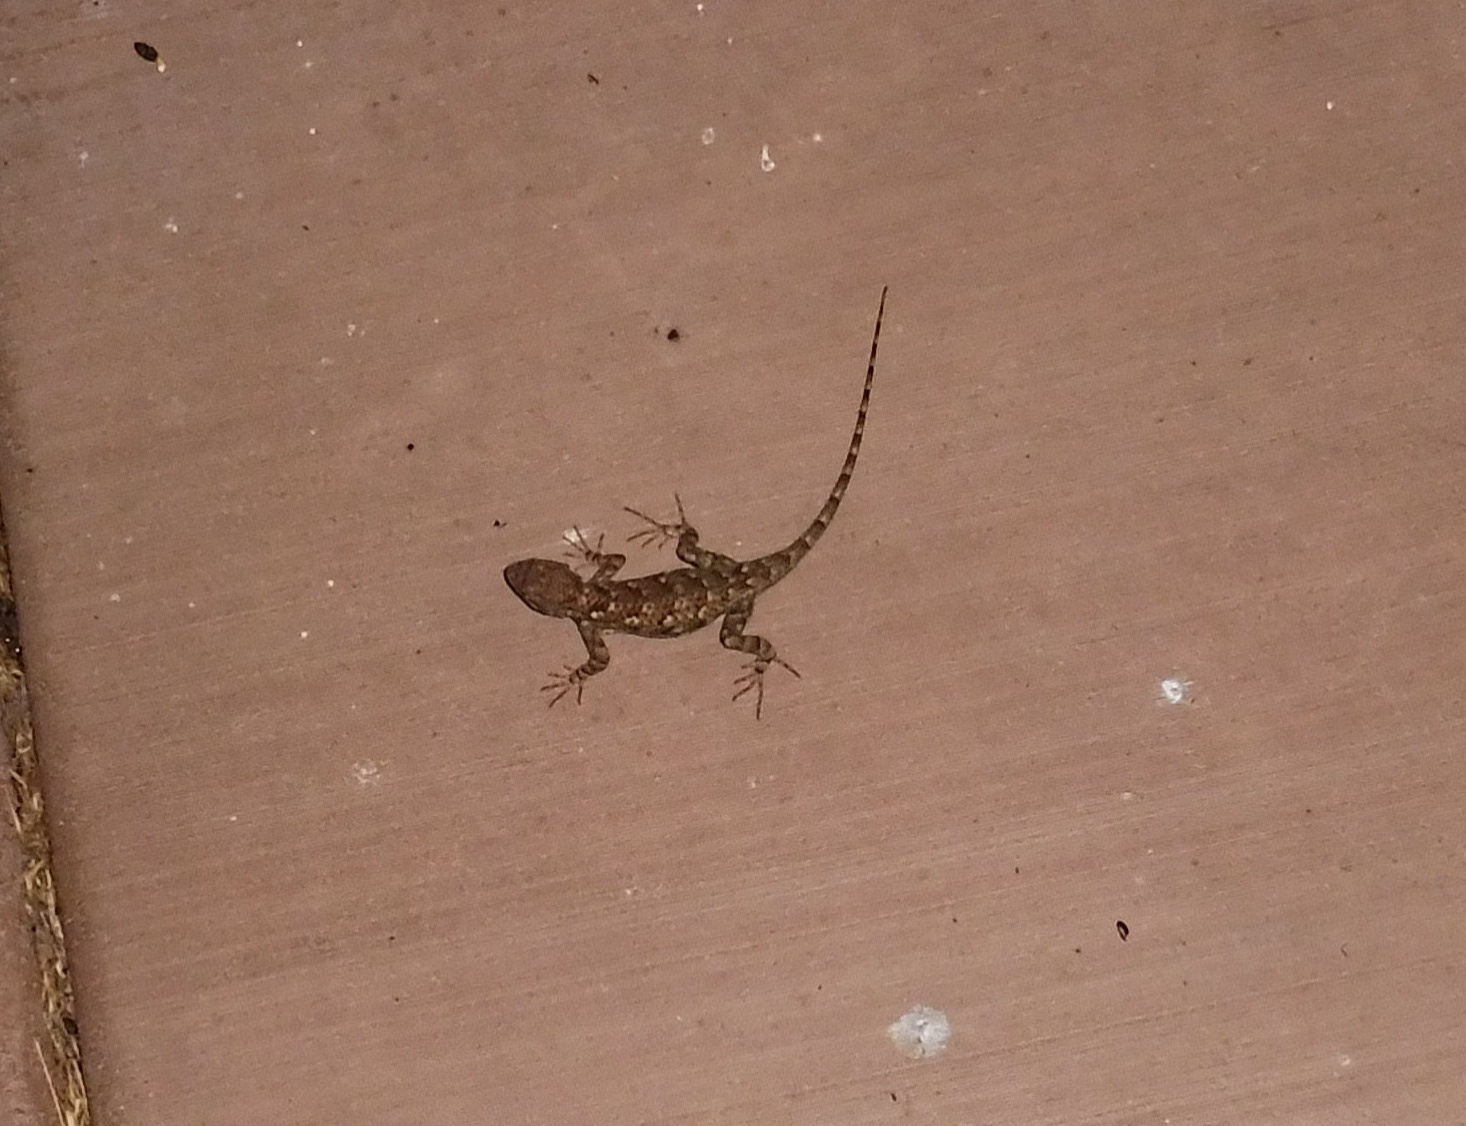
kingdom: Animalia
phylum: Chordata
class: Squamata
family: Phrynosomatidae
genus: Sceloporus
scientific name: Sceloporus clarkii
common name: Clark's spiny lizard
